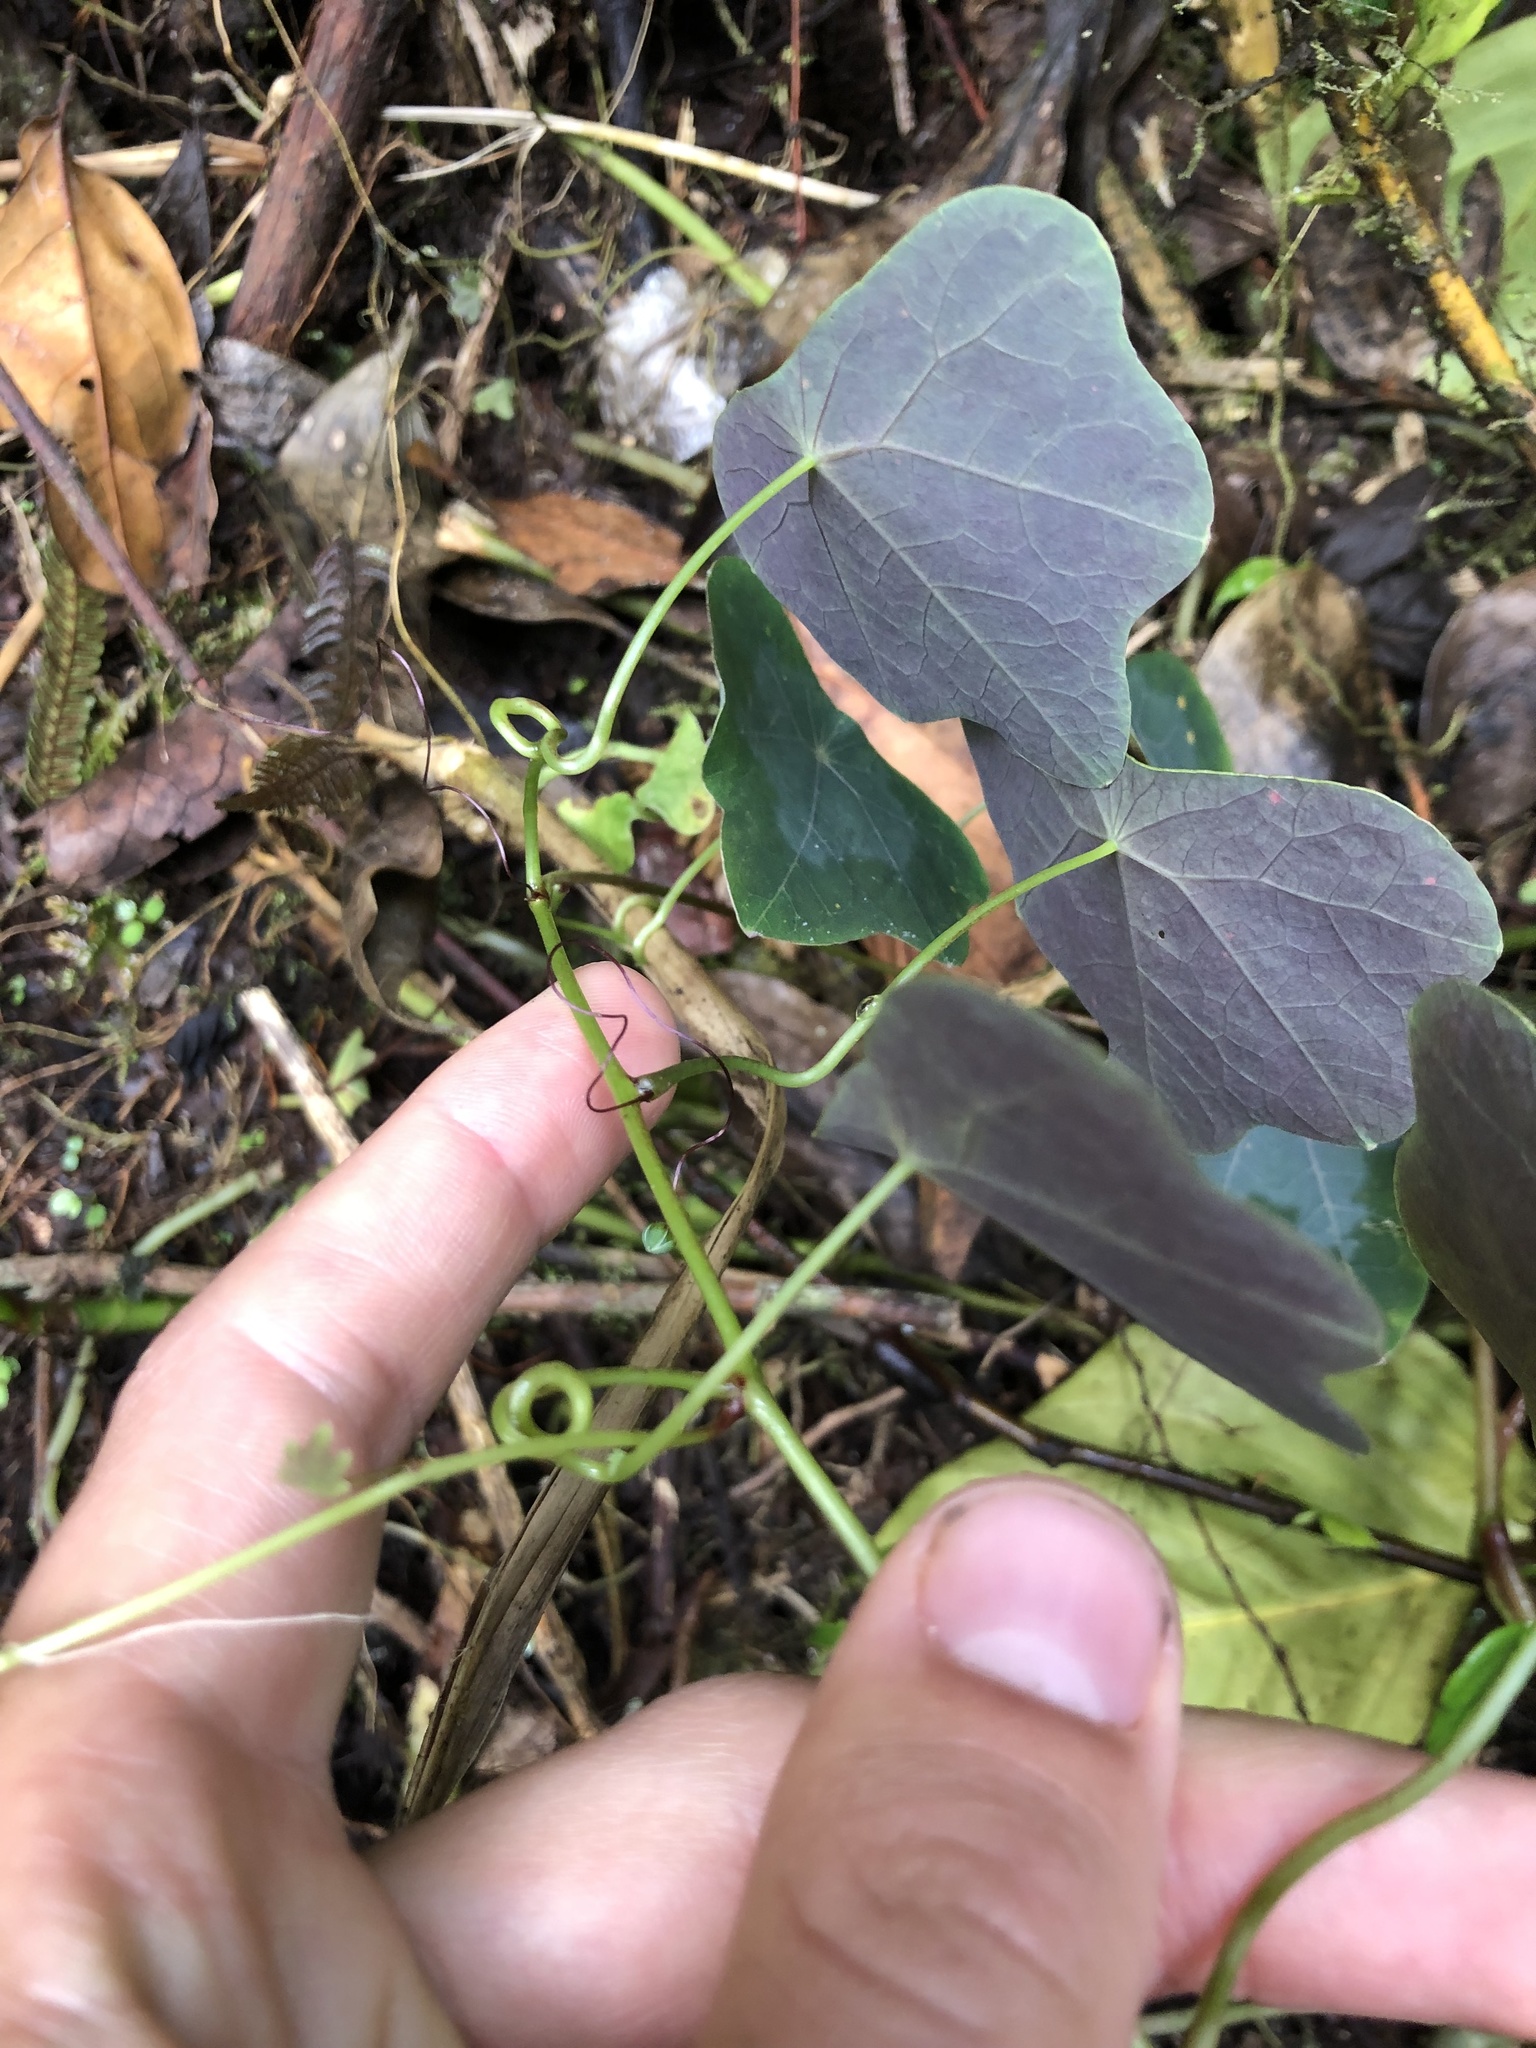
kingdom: Plantae
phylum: Tracheophyta
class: Magnoliopsida
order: Brassicales
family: Tropaeolaceae
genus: Tropaeolum
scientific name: Tropaeolum pubescens
